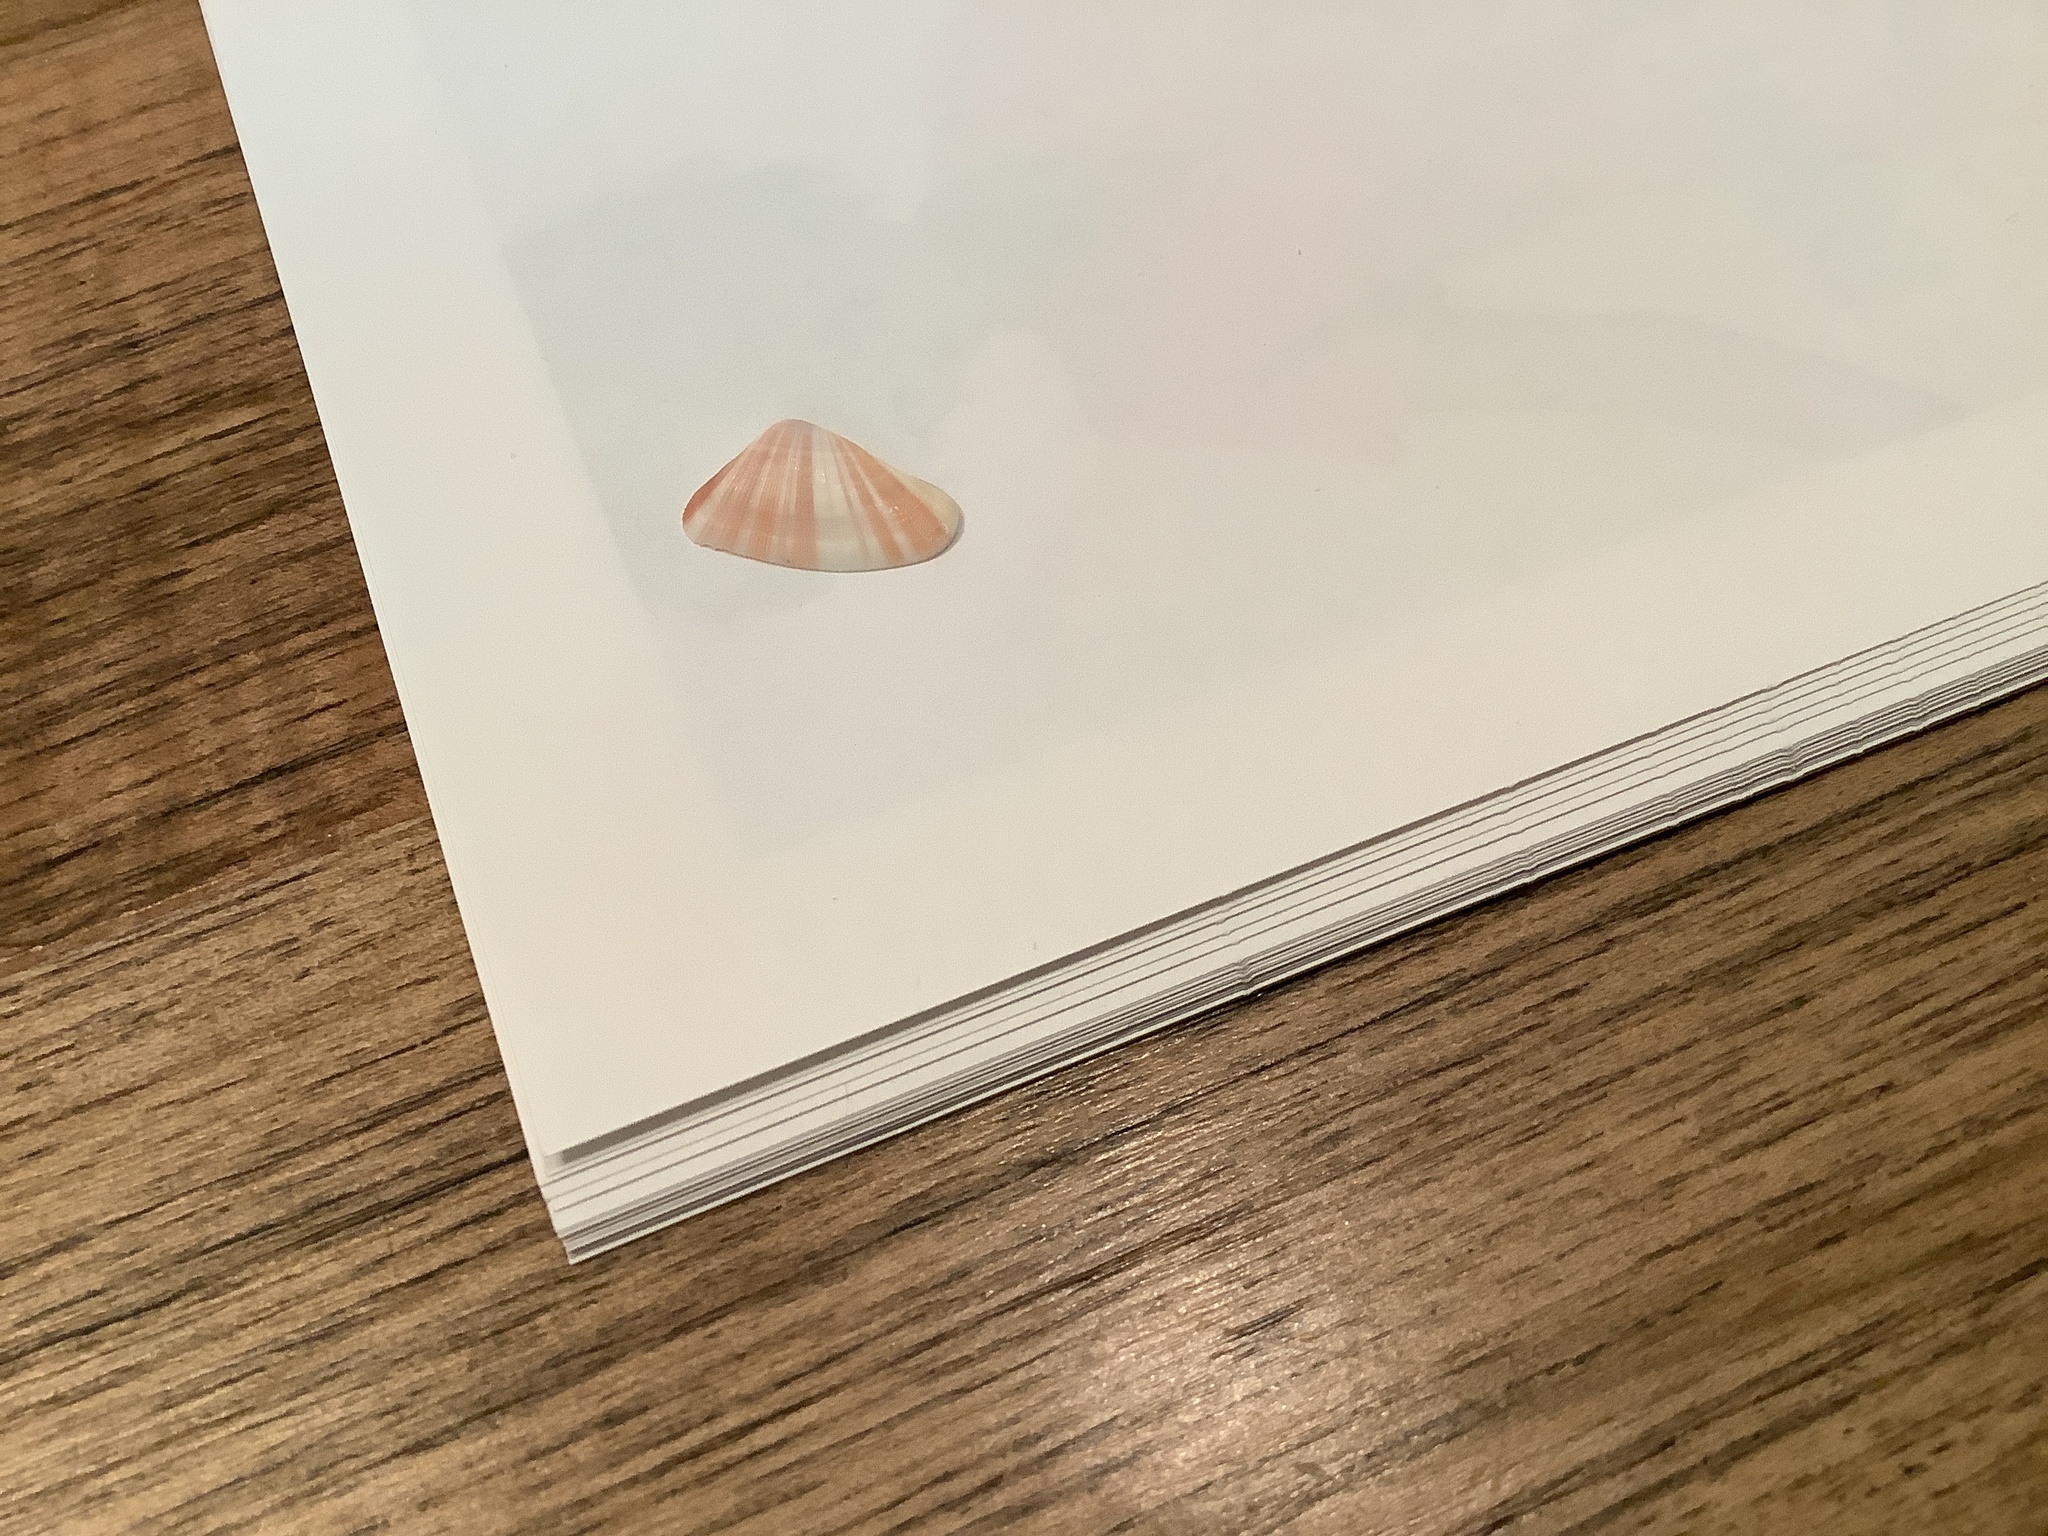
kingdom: Animalia
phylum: Mollusca
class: Bivalvia
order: Cardiida
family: Donacidae
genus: Donax
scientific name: Donax variabilis
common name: Butterfly shell
